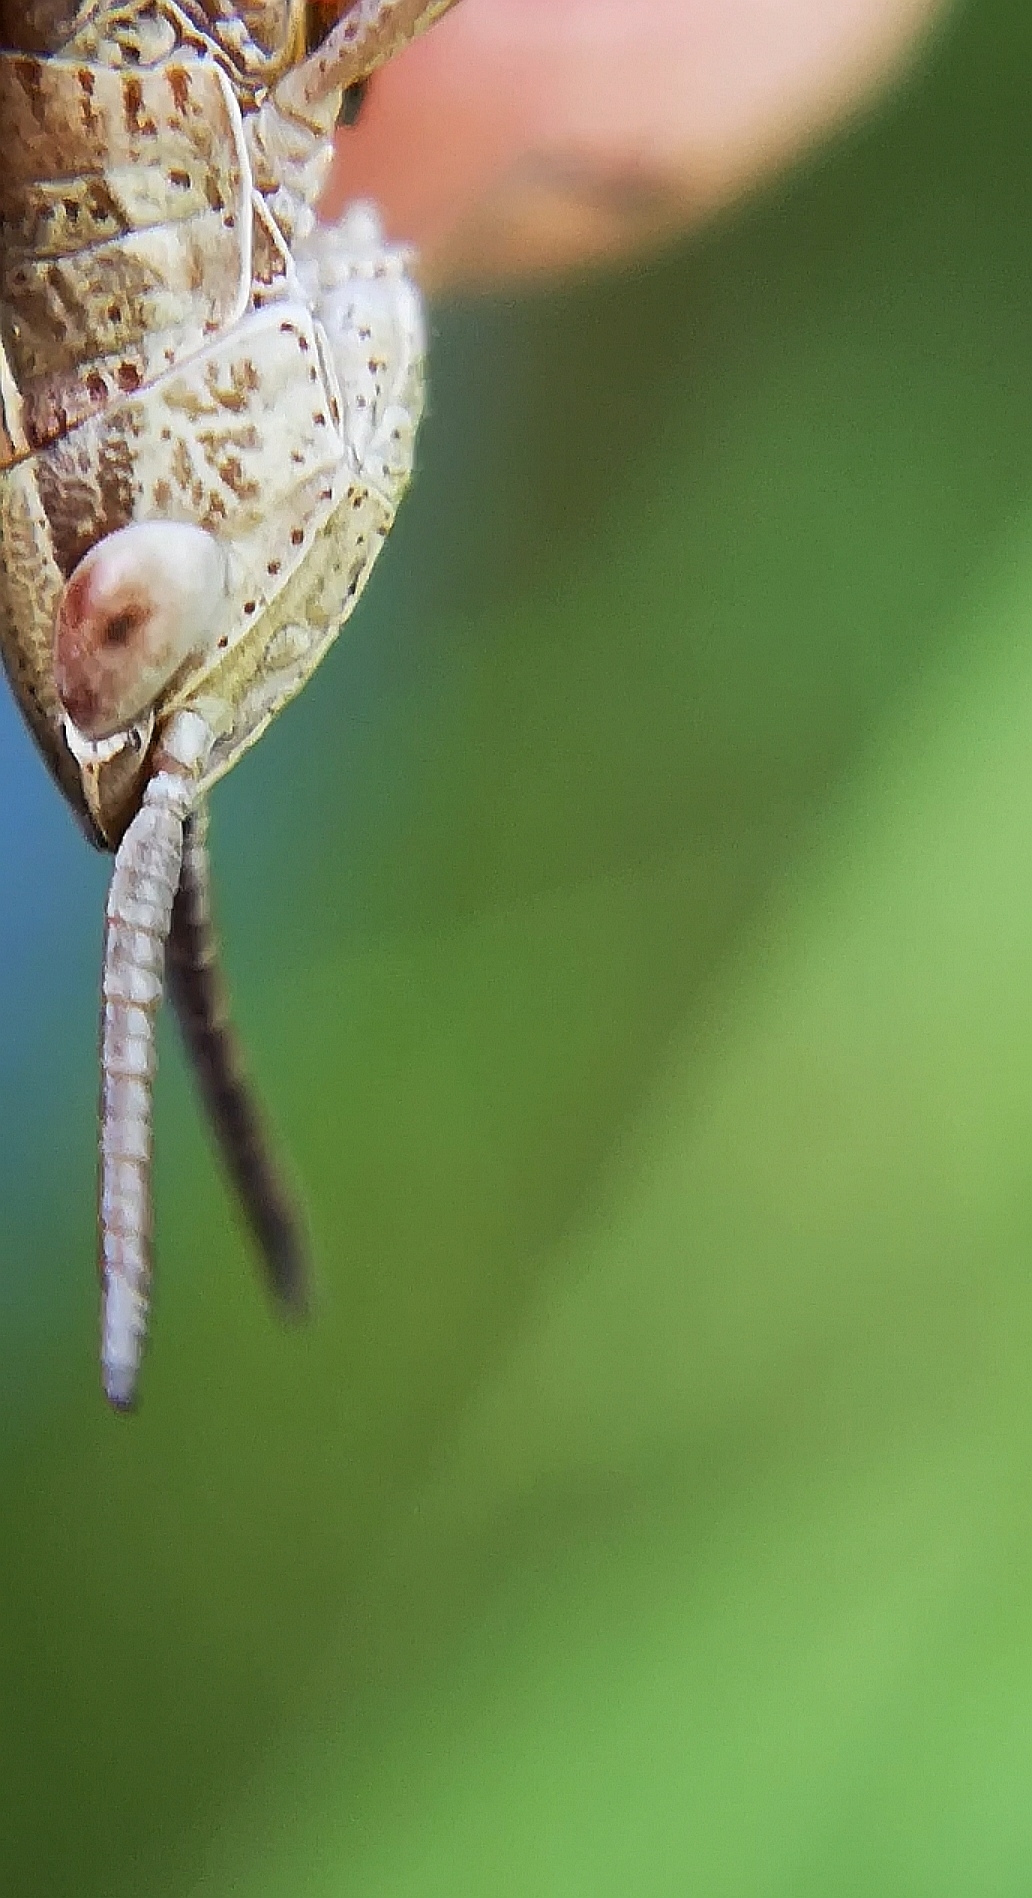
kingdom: Animalia
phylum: Arthropoda
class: Insecta
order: Orthoptera
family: Acrididae
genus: Euthystira
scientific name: Euthystira brachyptera
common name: Small gold grasshopper
